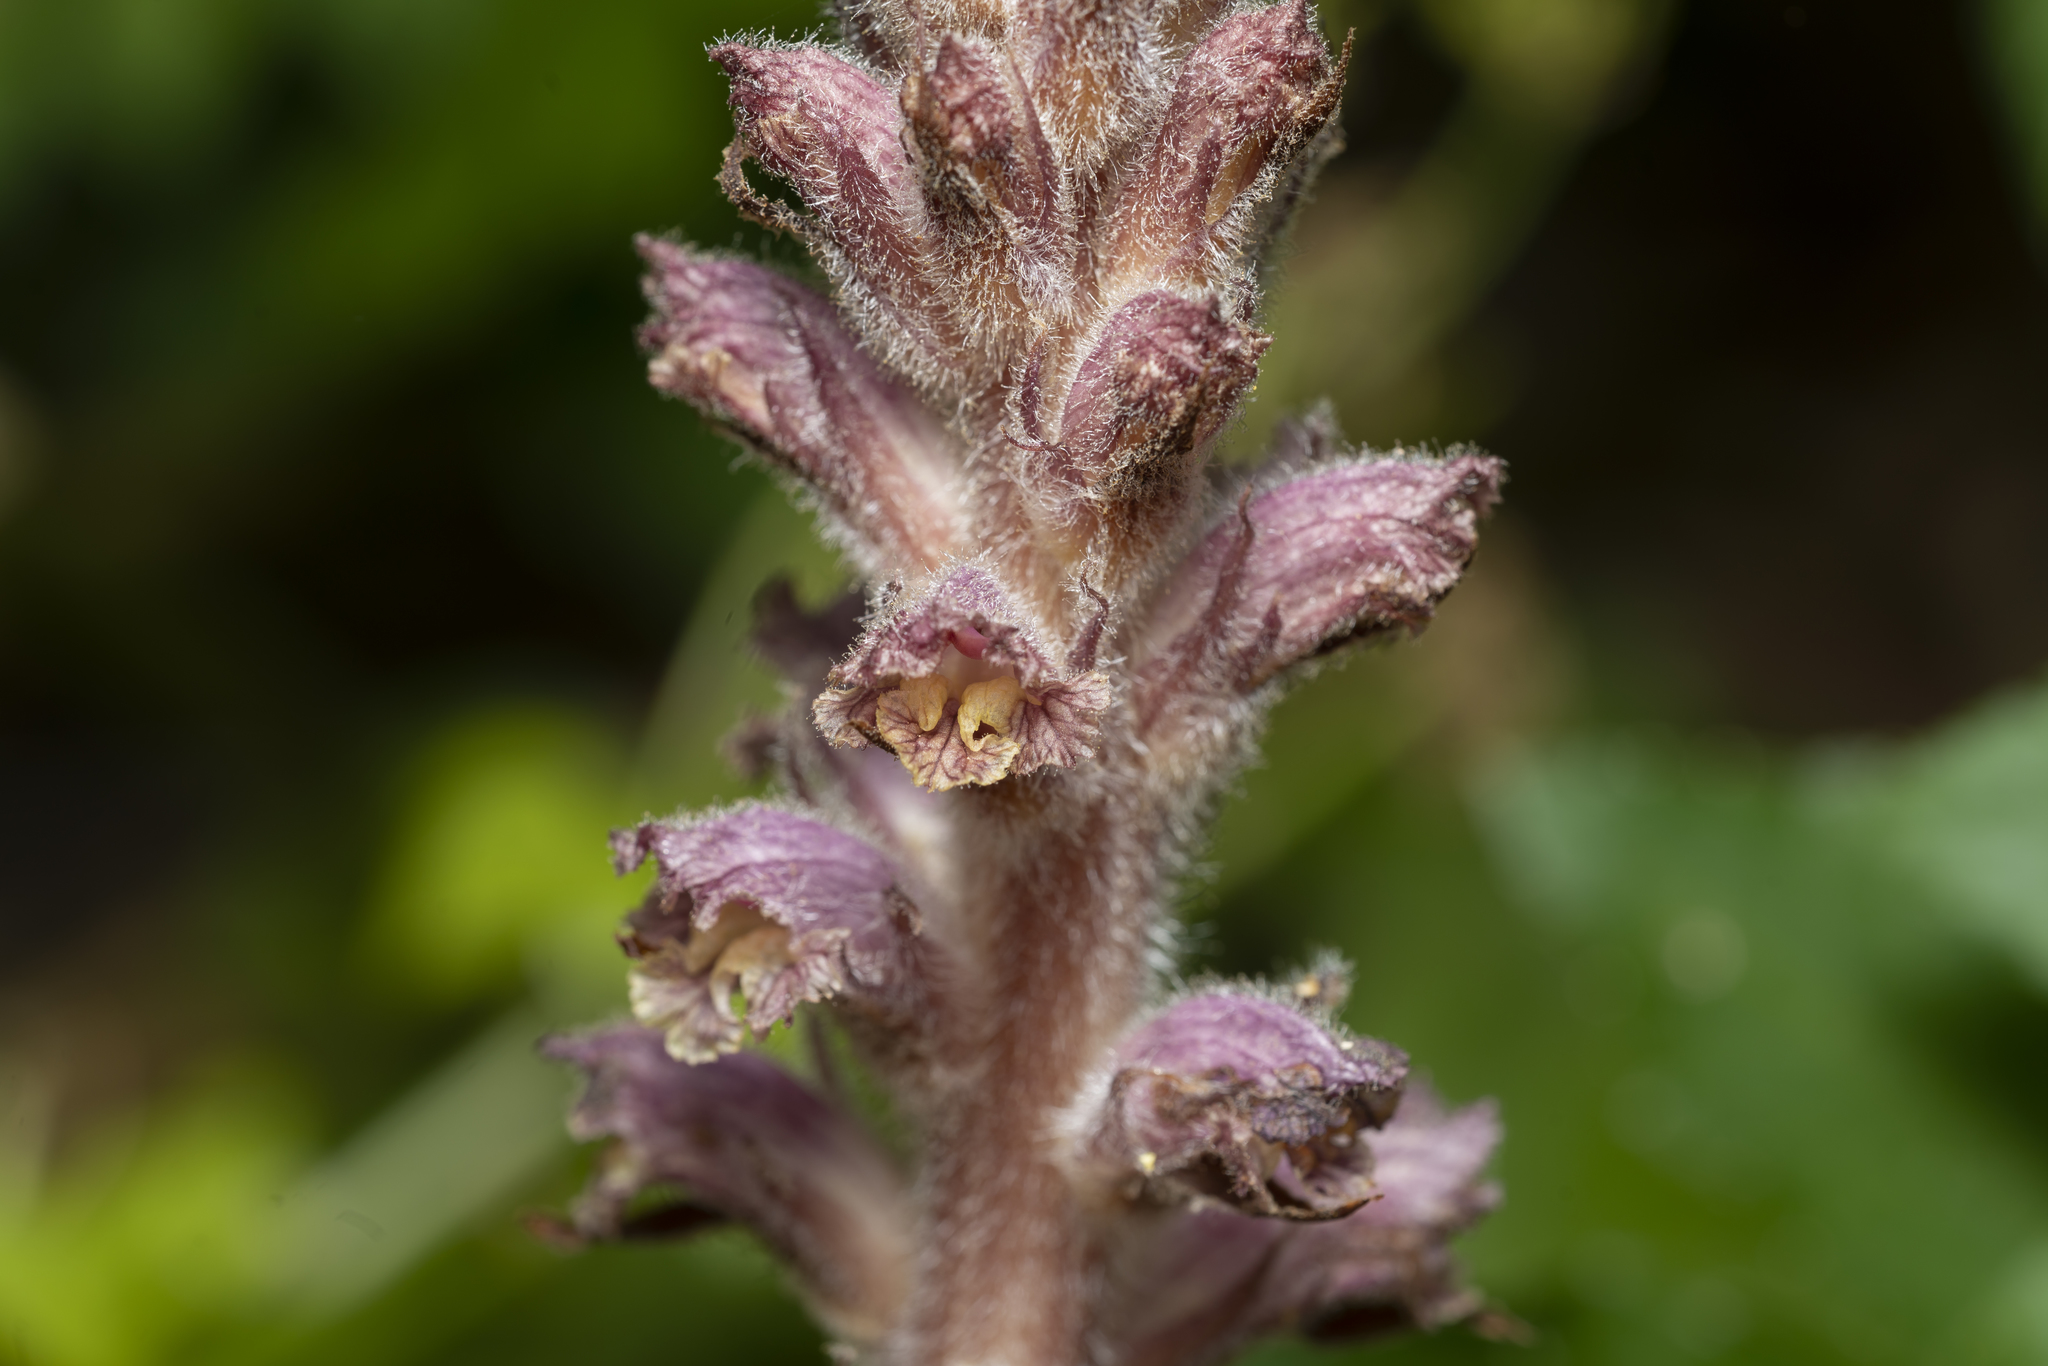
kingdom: Plantae
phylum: Tracheophyta
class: Magnoliopsida
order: Lamiales
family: Orobanchaceae
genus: Orobanche
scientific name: Orobanche pubescens
